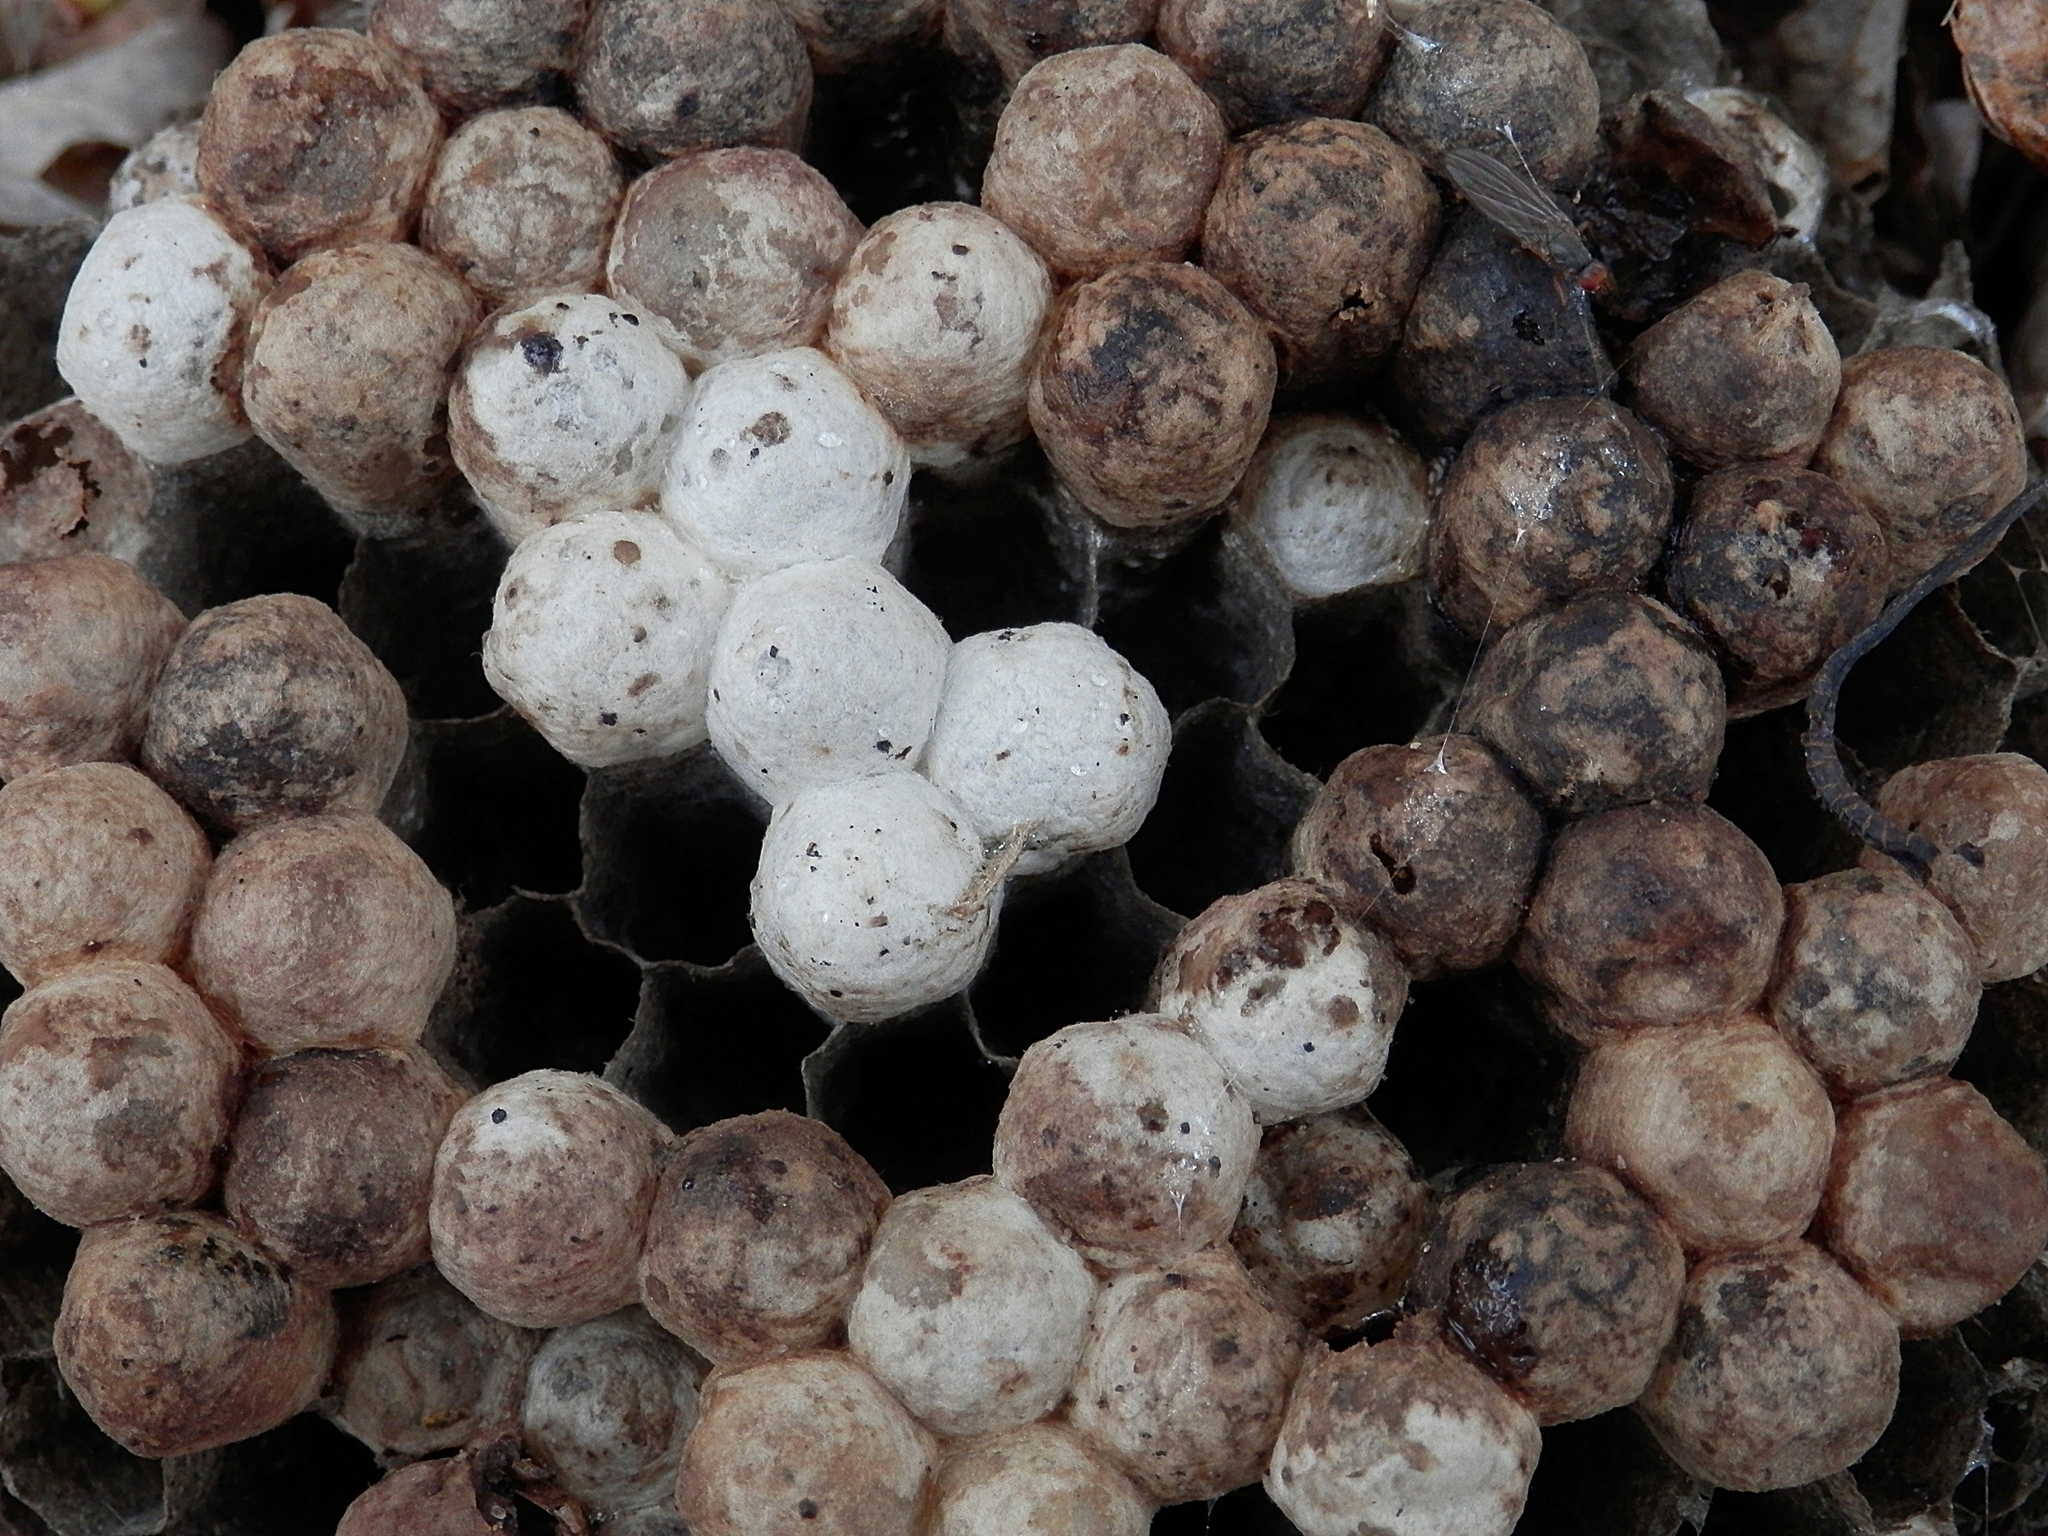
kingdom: Animalia
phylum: Arthropoda
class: Insecta
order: Hymenoptera
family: Eumenidae
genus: Polistes
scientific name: Polistes
